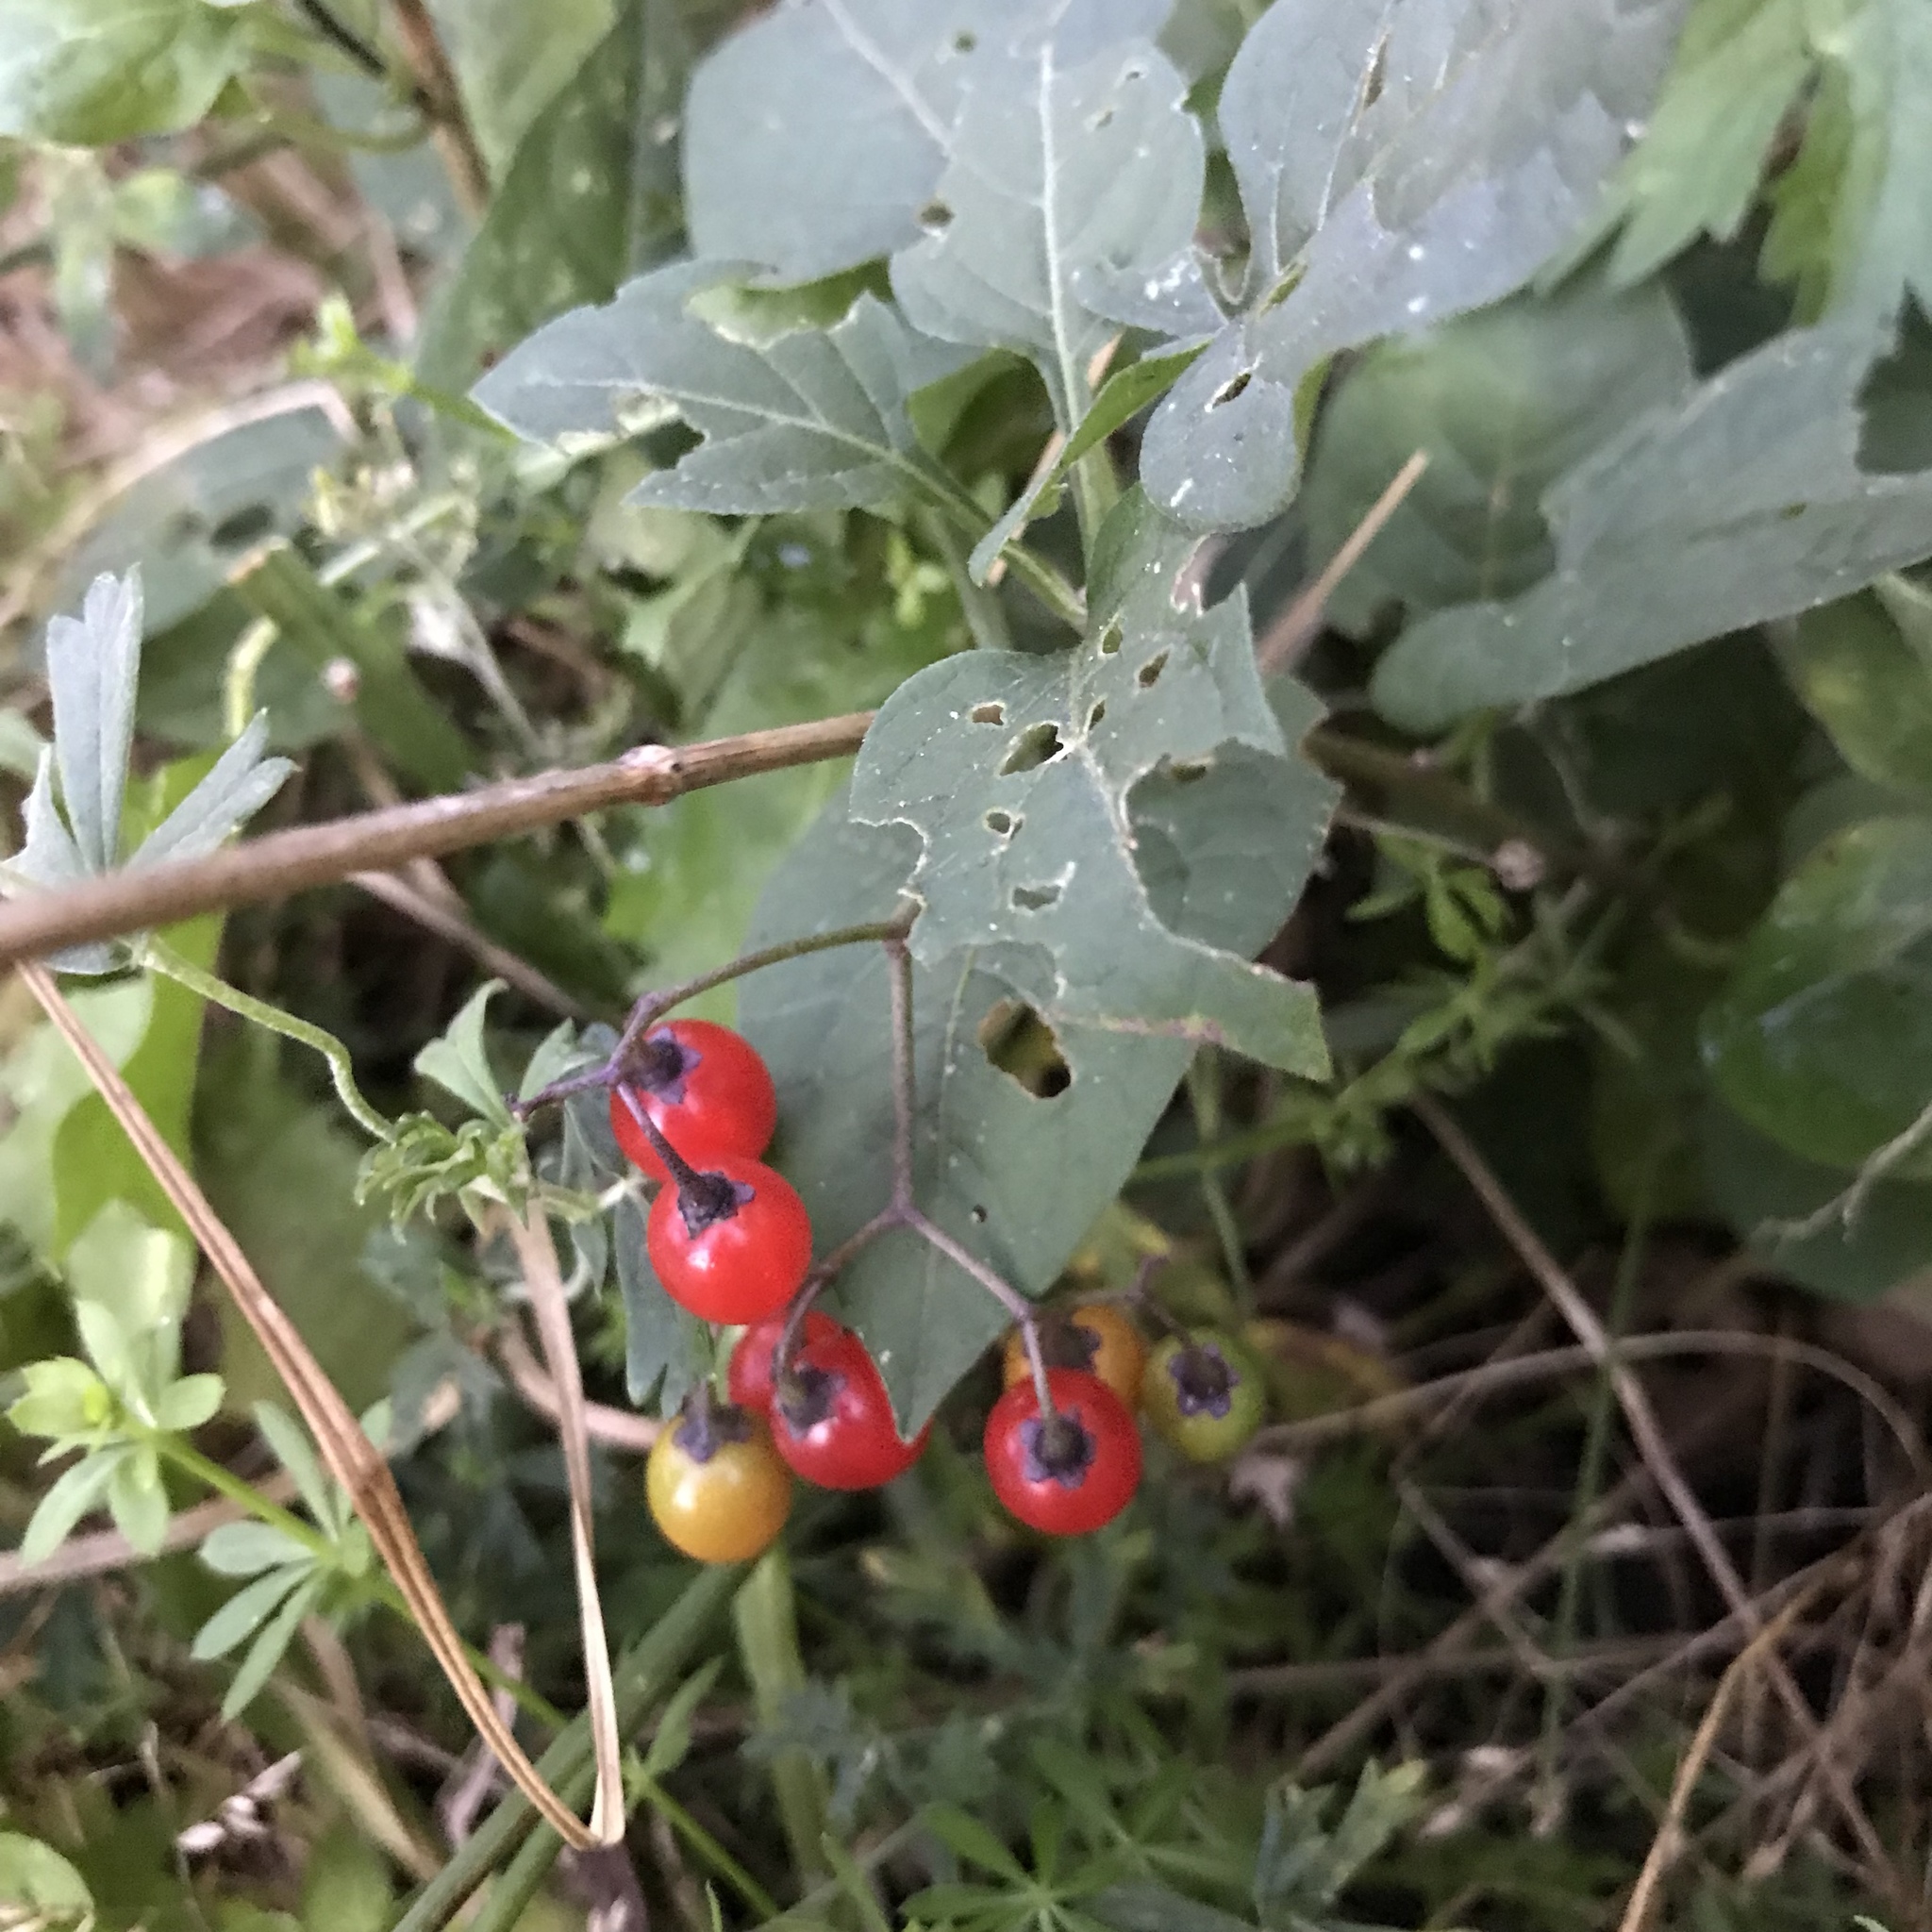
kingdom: Plantae
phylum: Tracheophyta
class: Magnoliopsida
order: Solanales
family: Solanaceae
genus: Solanum
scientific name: Solanum dulcamara
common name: Climbing nightshade
